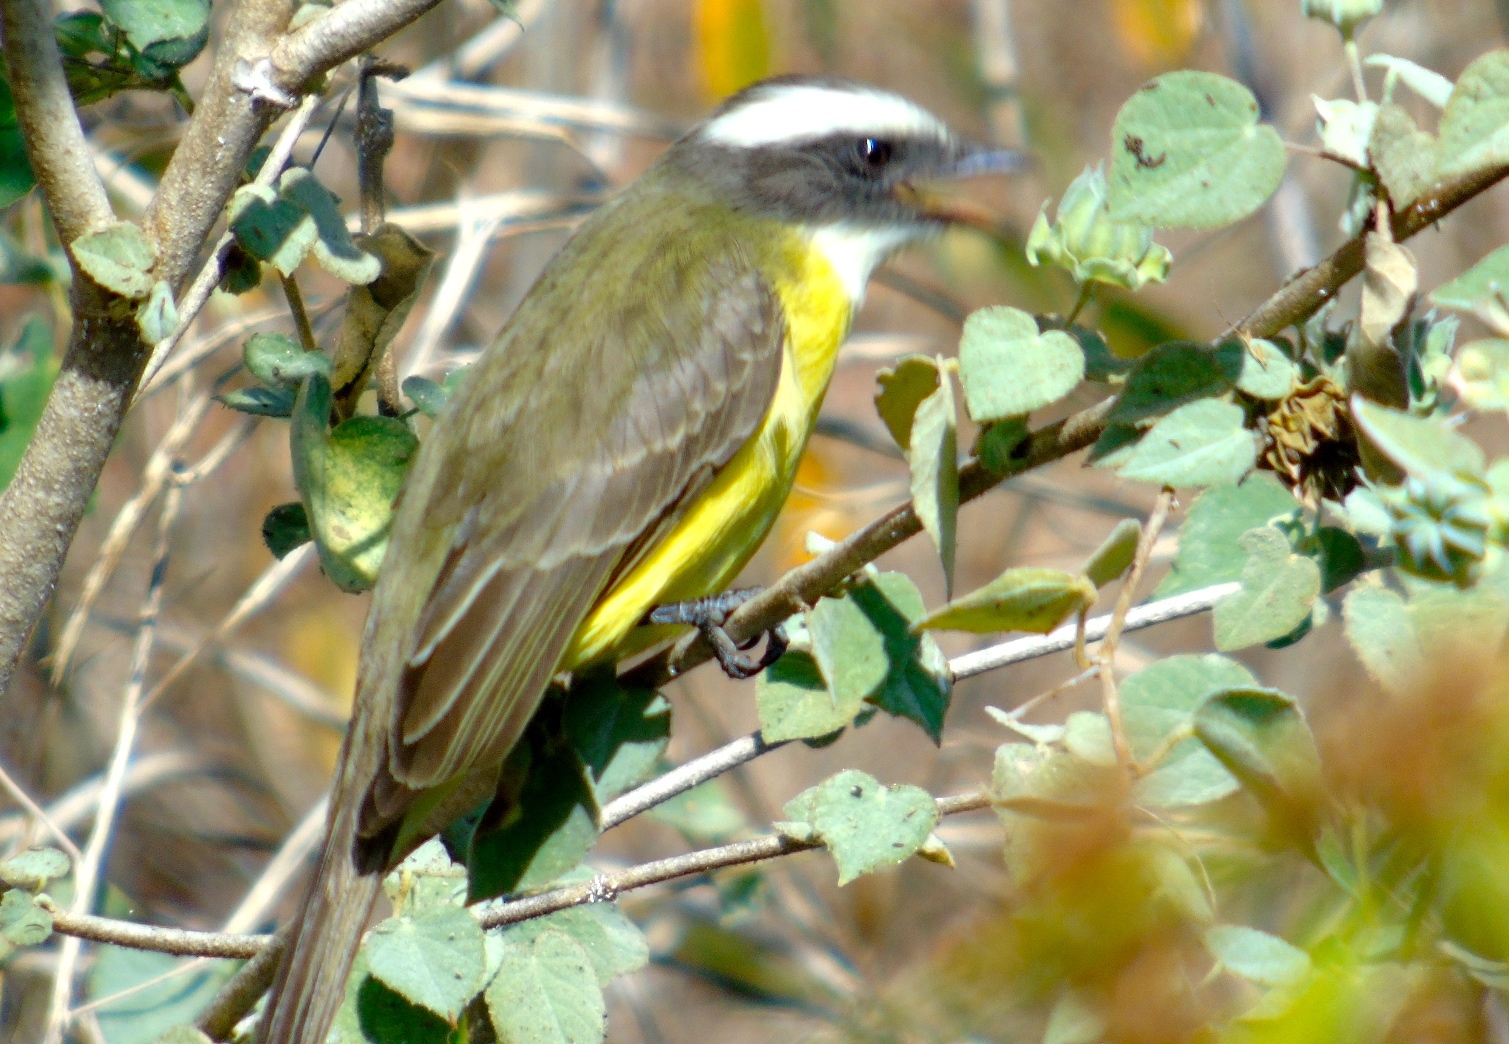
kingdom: Animalia
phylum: Chordata
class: Aves
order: Passeriformes
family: Tyrannidae
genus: Myiozetetes
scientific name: Myiozetetes similis
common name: Social flycatcher
